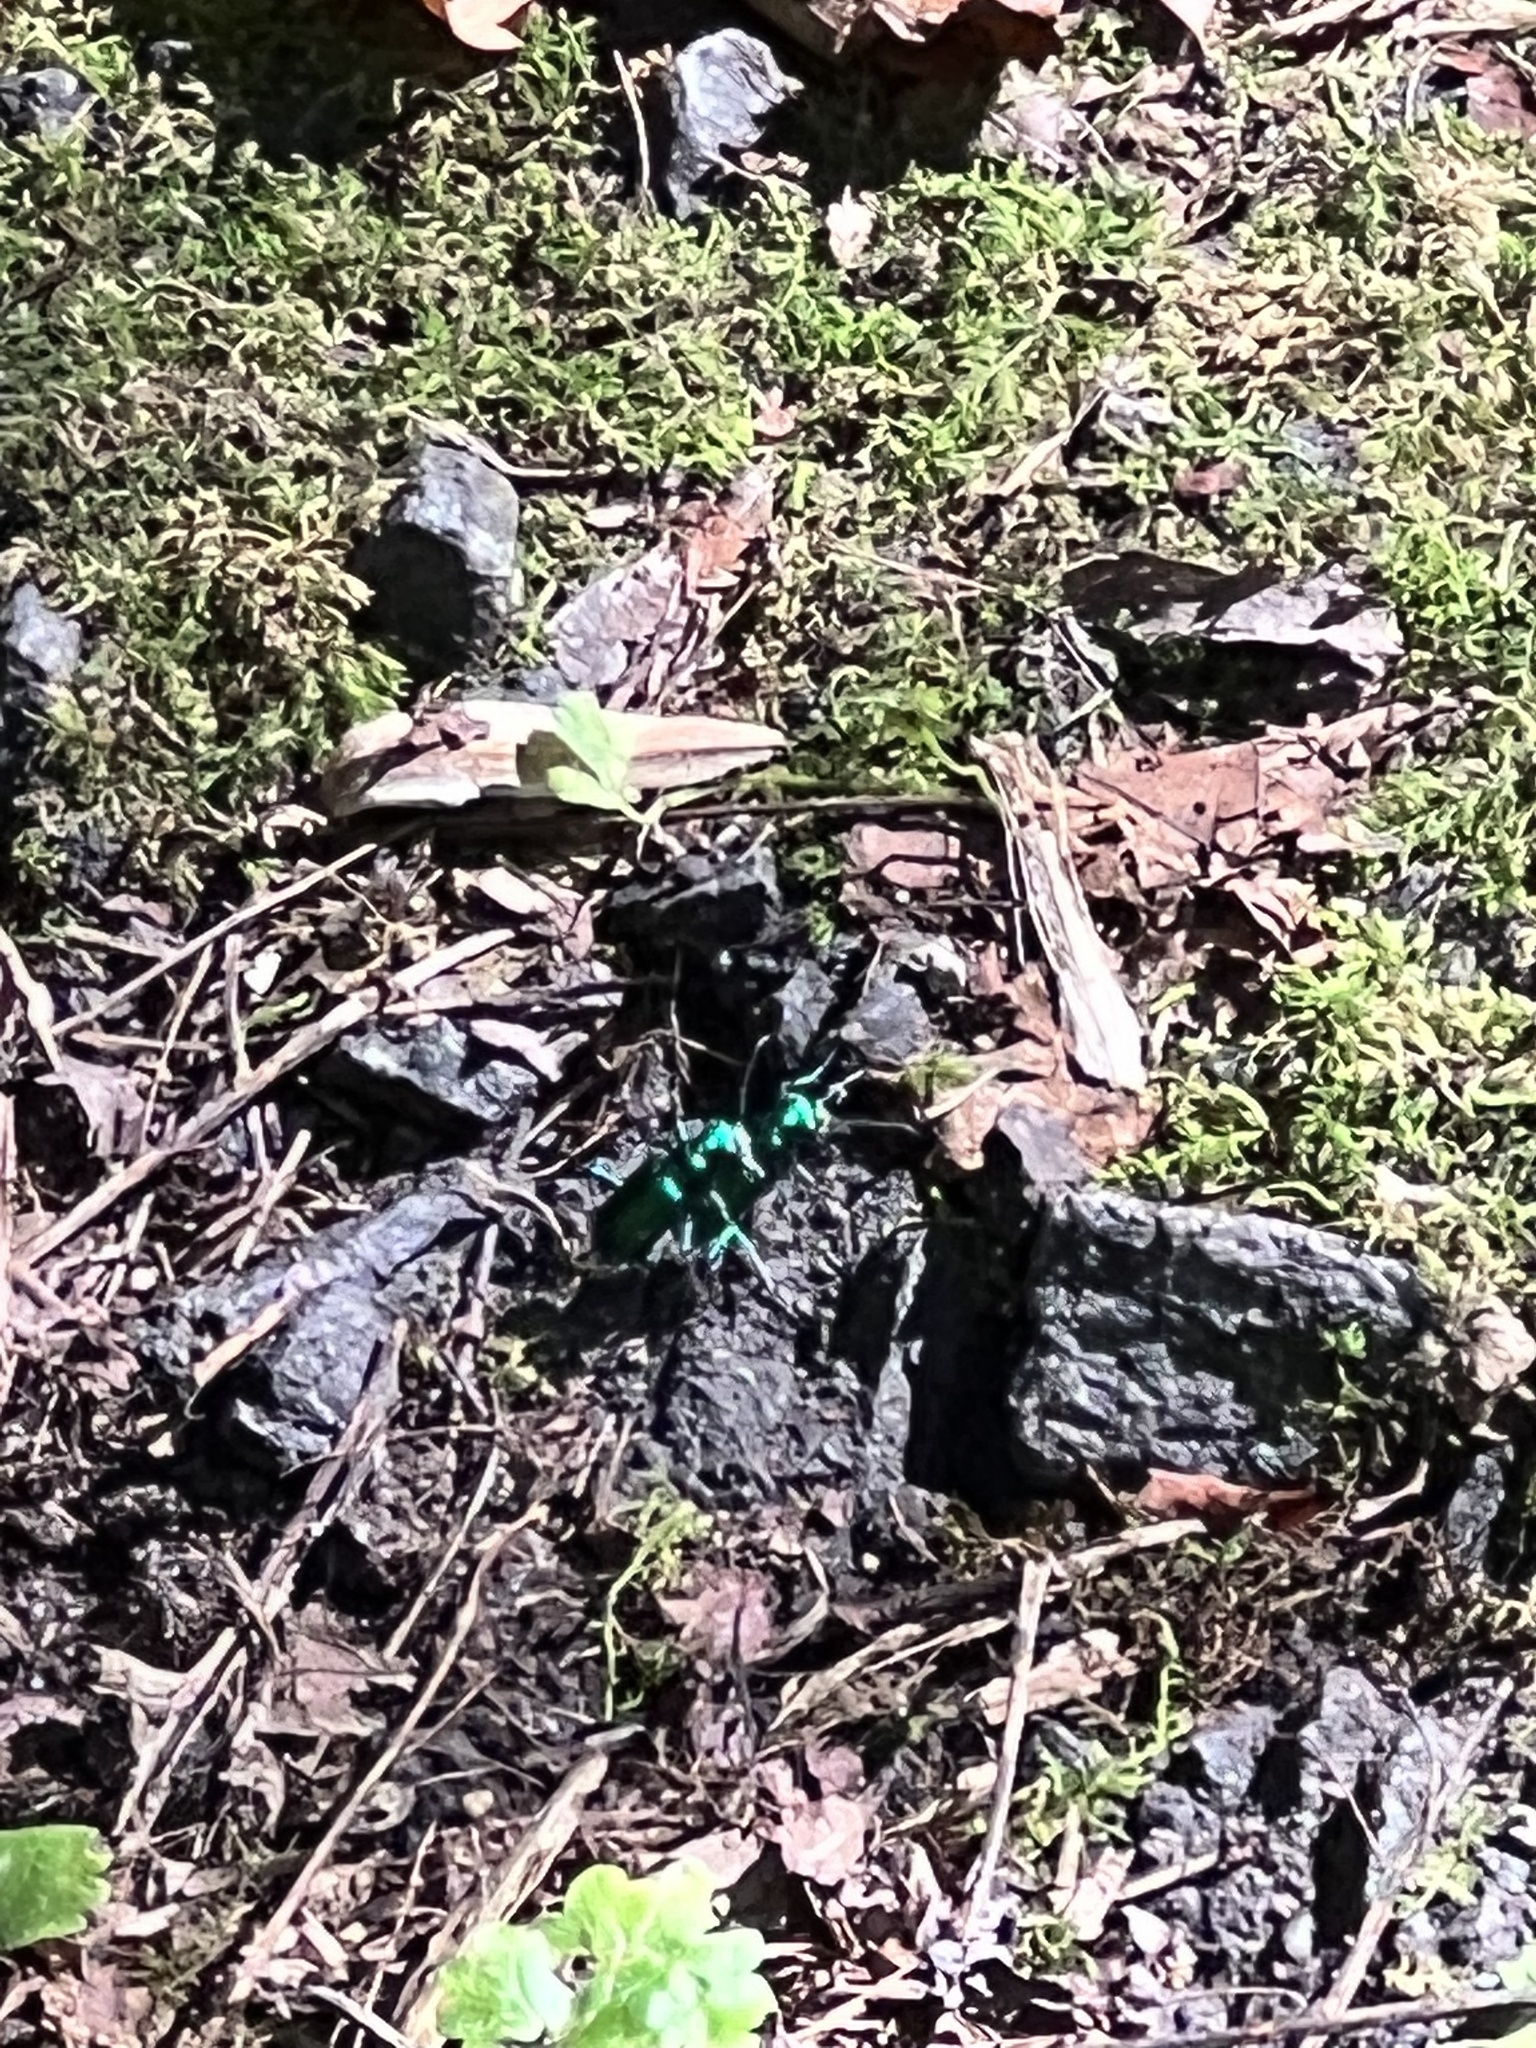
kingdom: Animalia
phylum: Arthropoda
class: Insecta
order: Coleoptera
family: Carabidae
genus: Cicindela
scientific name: Cicindela sexguttata
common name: Six-spotted tiger beetle
